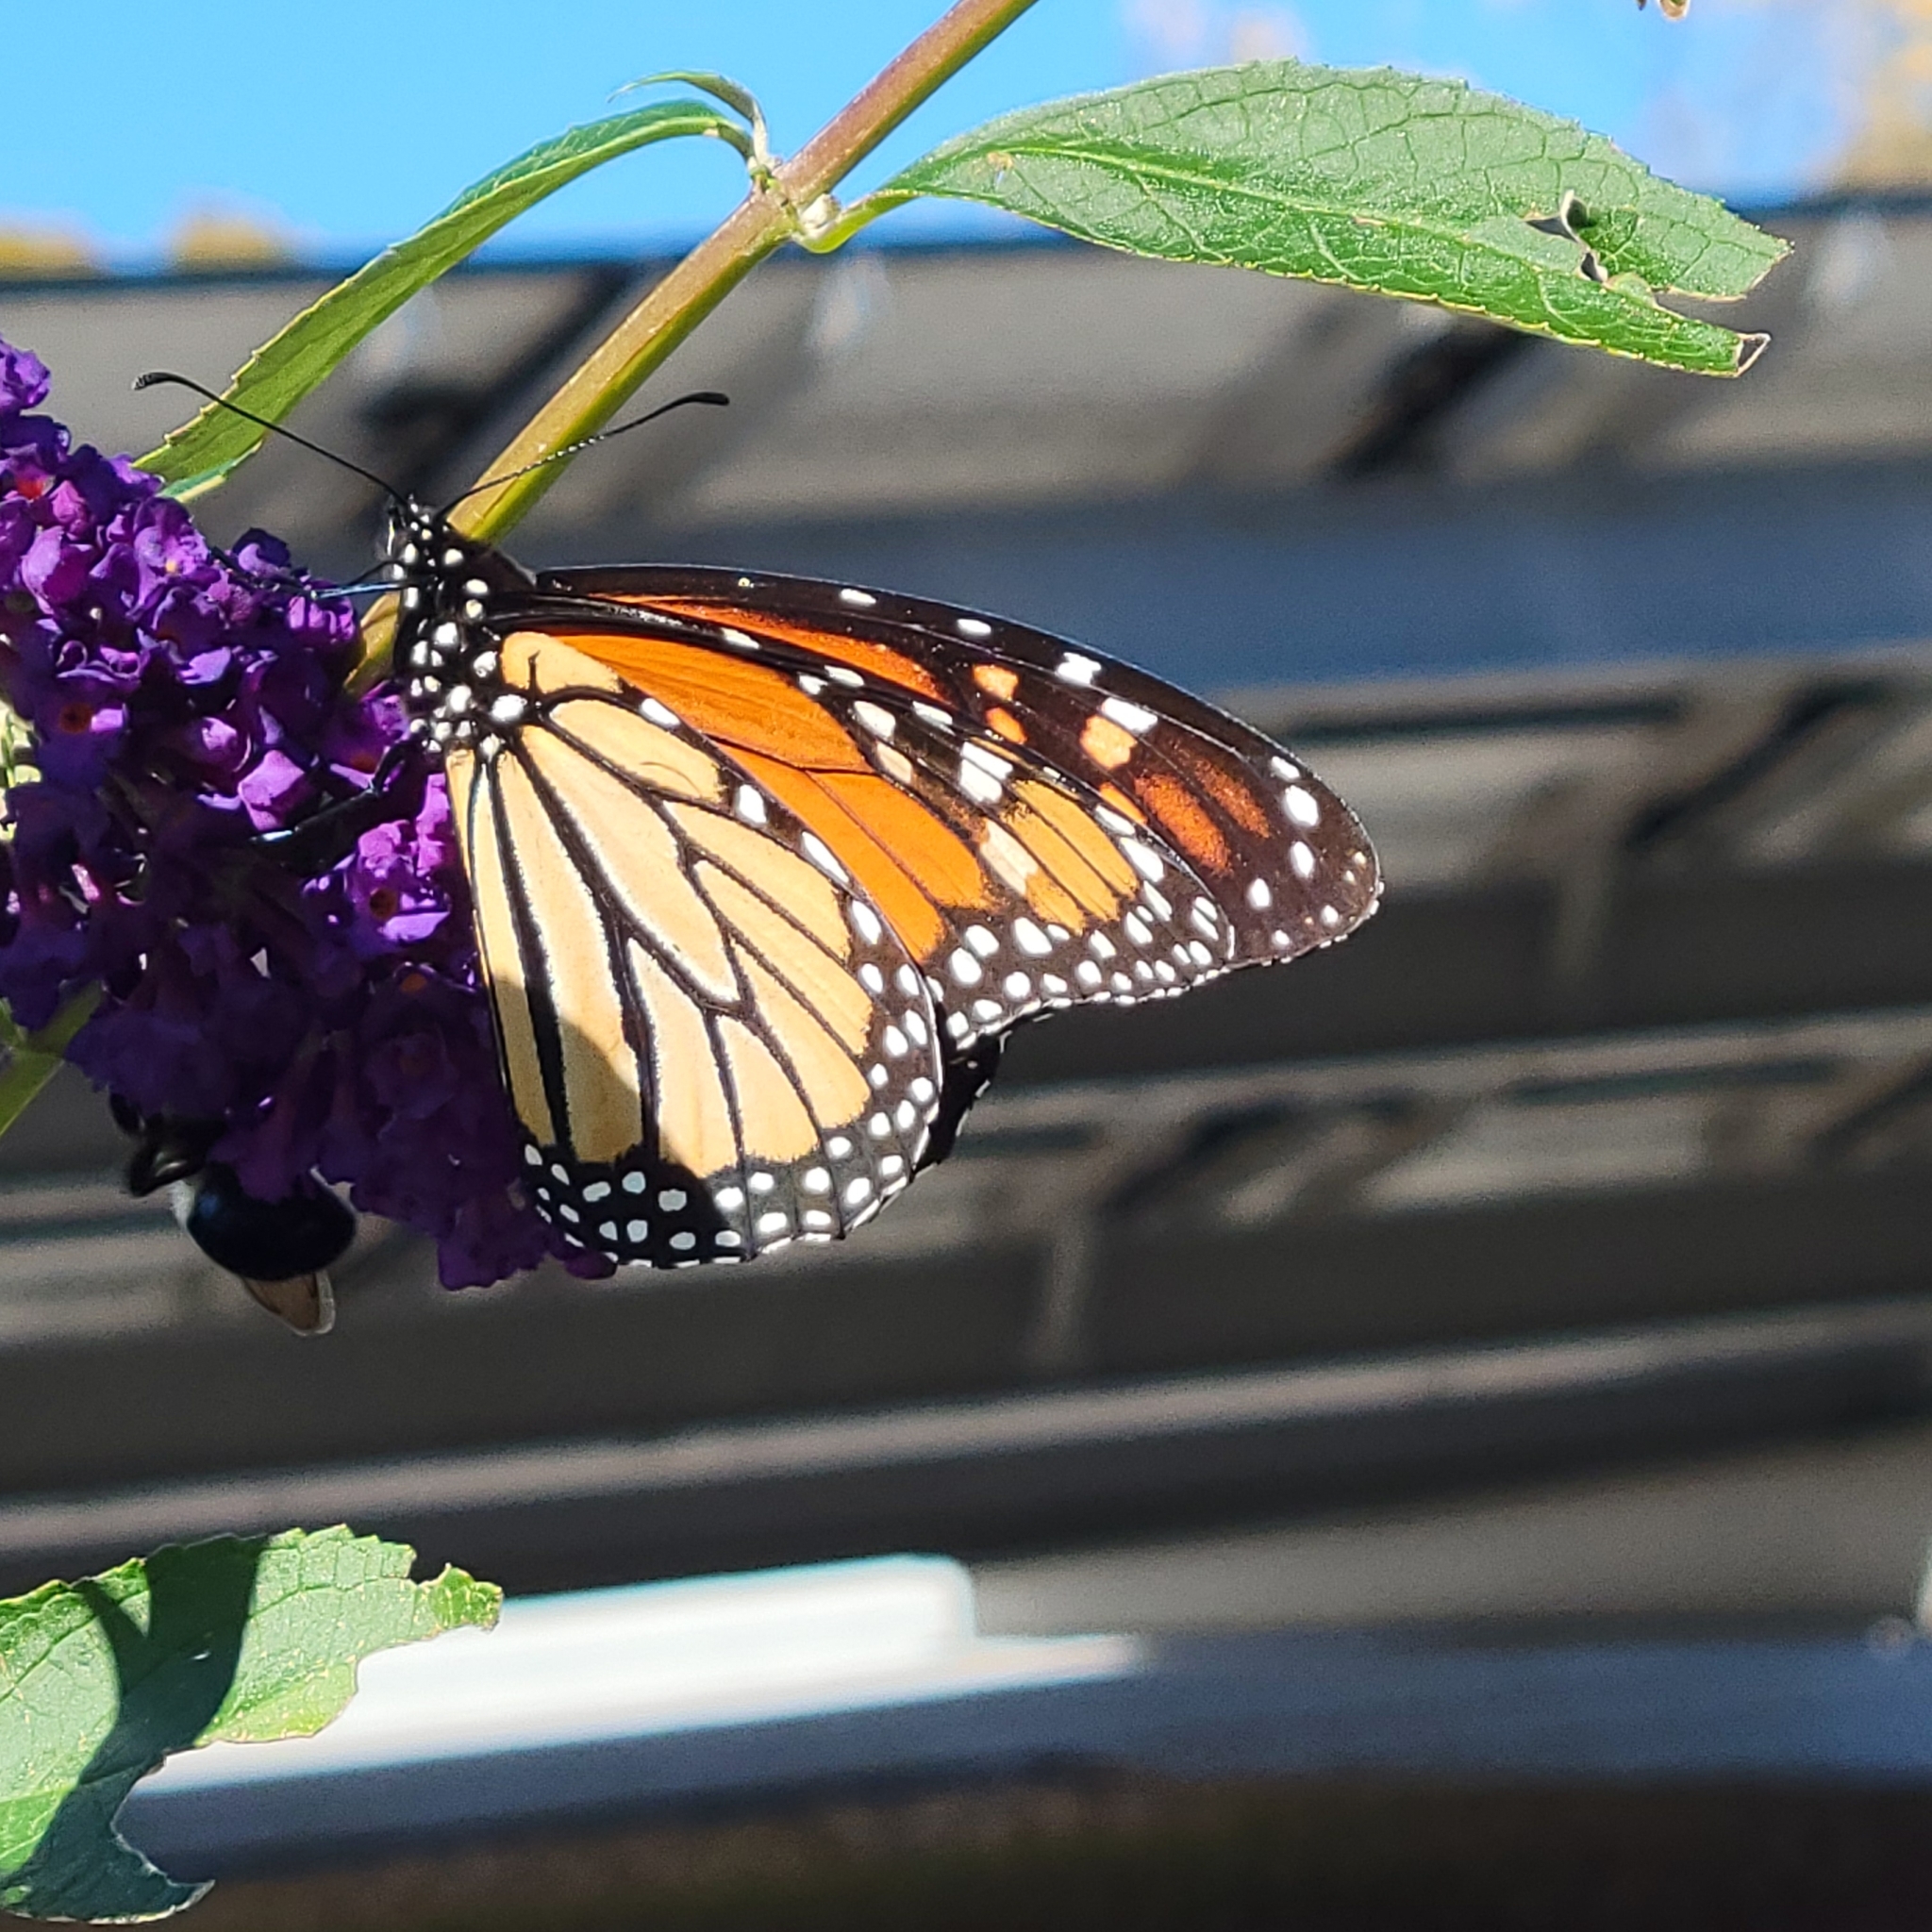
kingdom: Animalia
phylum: Arthropoda
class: Insecta
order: Lepidoptera
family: Nymphalidae
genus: Danaus
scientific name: Danaus plexippus
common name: Monarch
